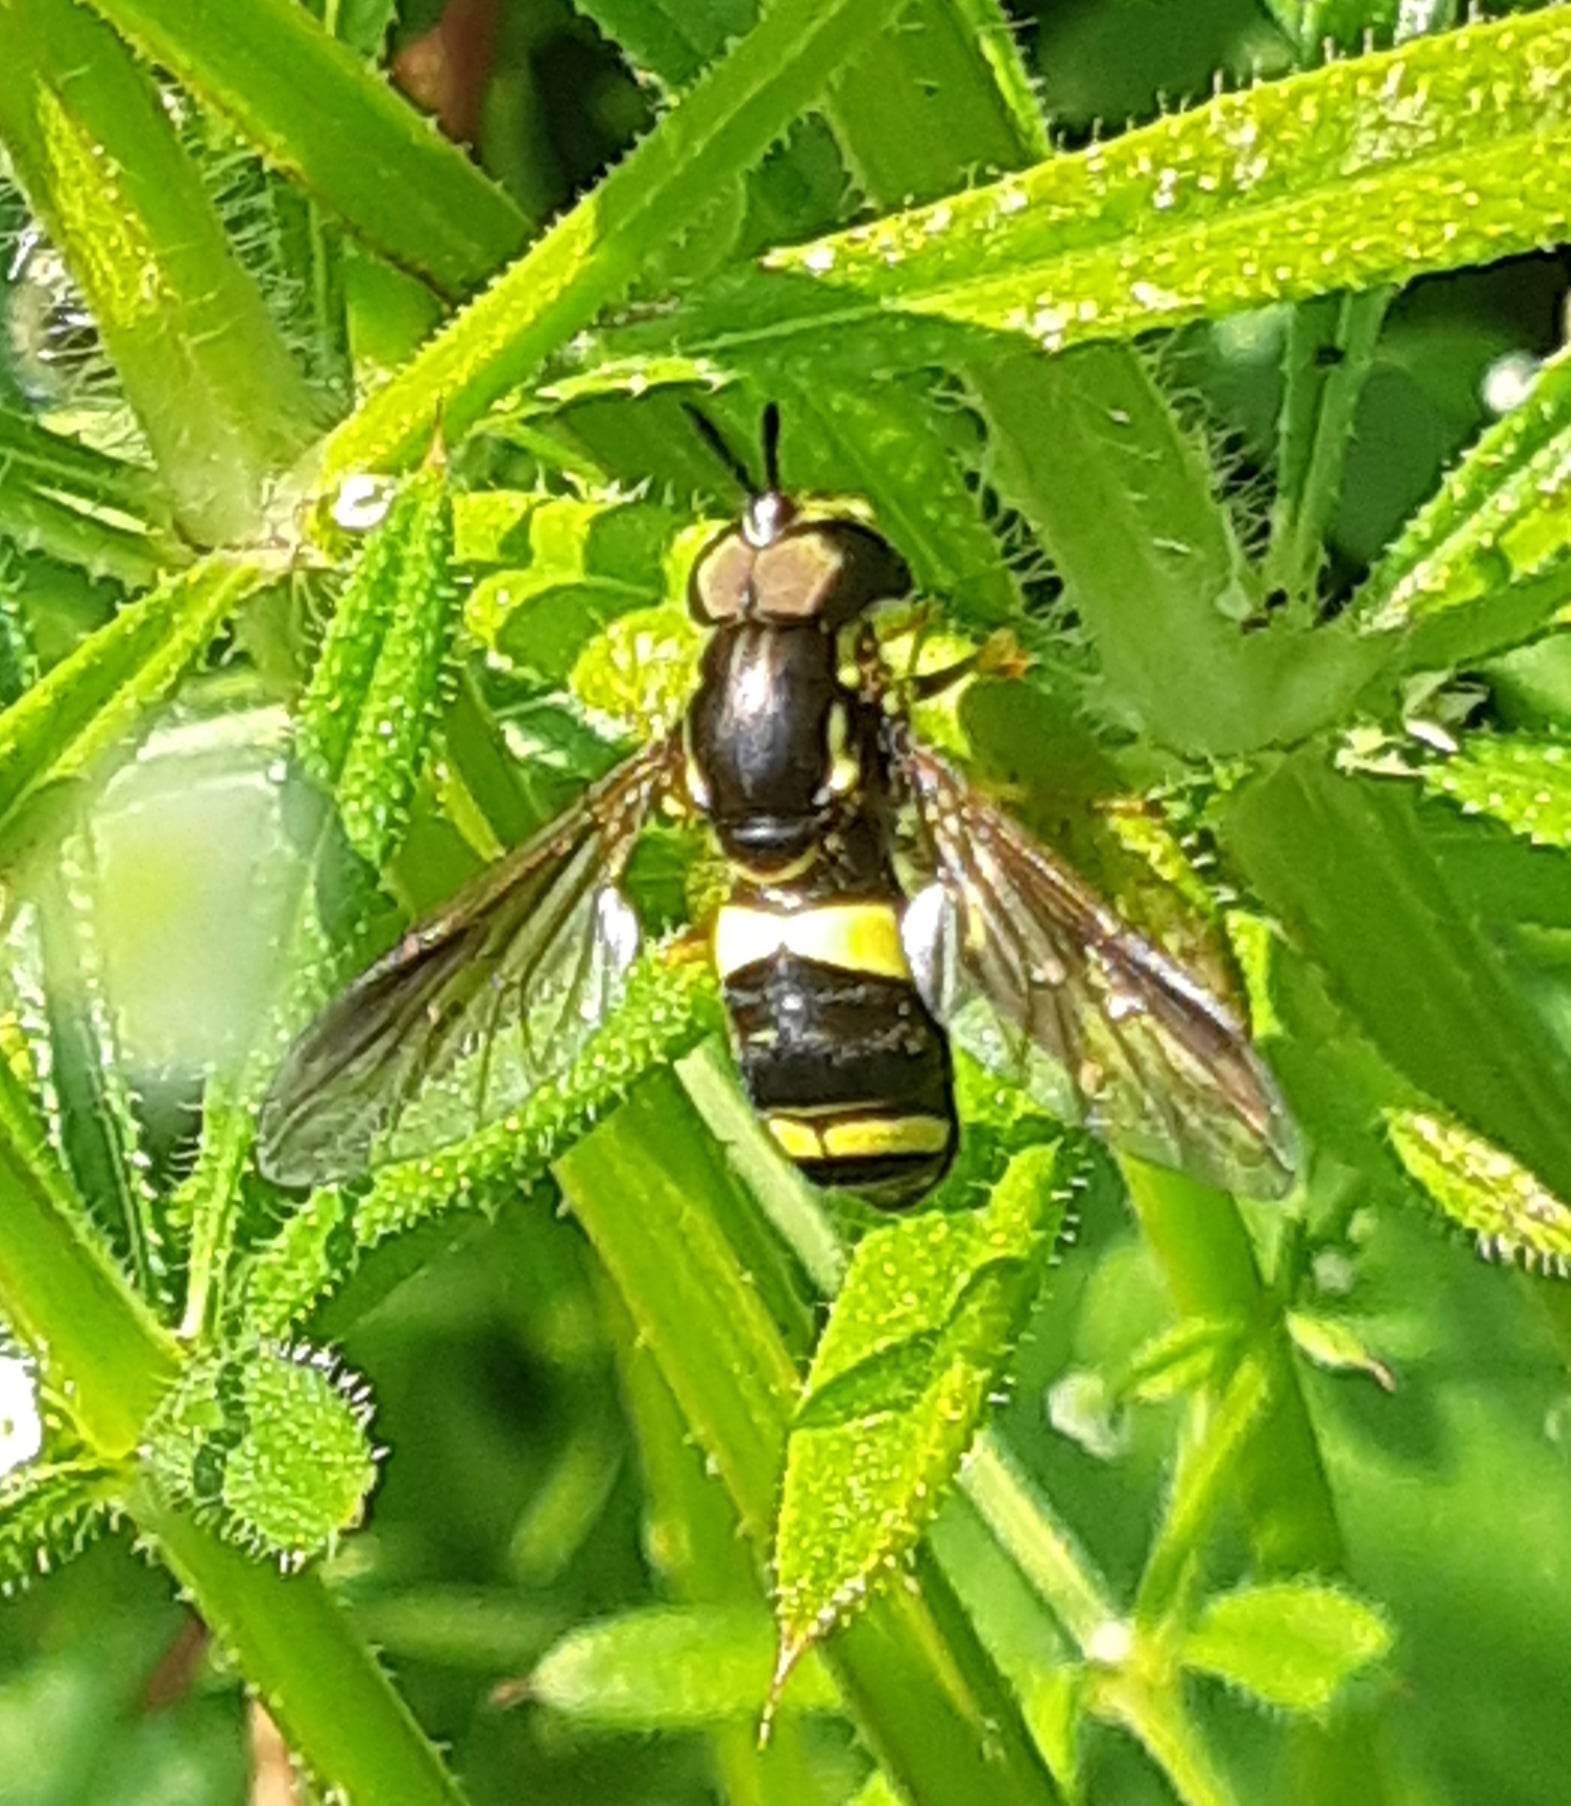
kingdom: Animalia
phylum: Arthropoda
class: Insecta
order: Diptera
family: Syrphidae
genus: Chrysotoxum
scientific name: Chrysotoxum bicincta
